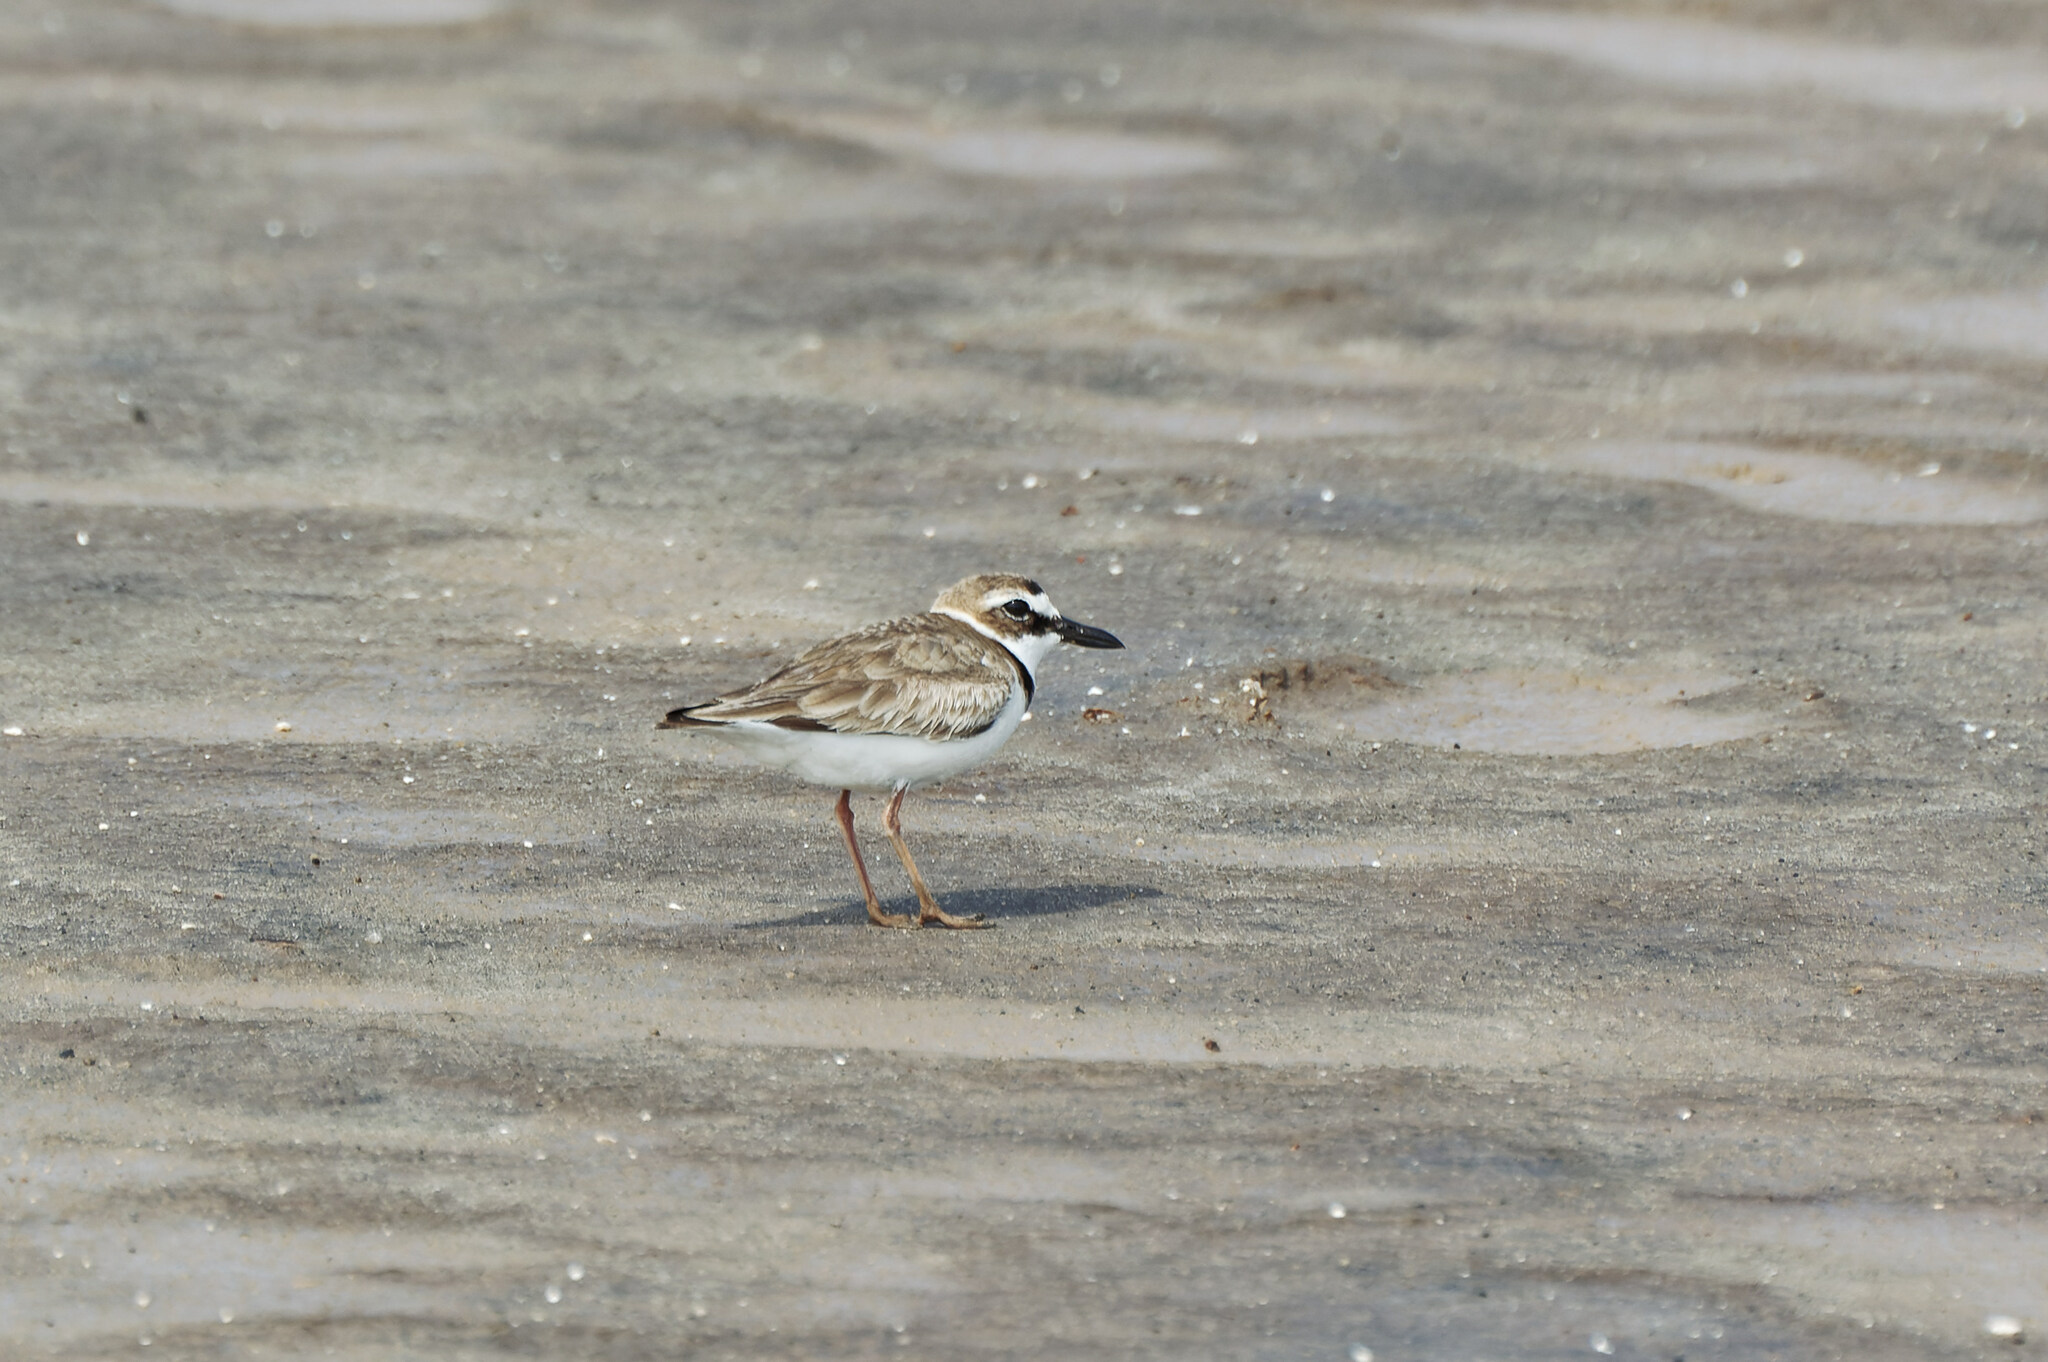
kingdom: Animalia
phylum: Chordata
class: Aves
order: Charadriiformes
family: Charadriidae
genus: Anarhynchus
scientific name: Anarhynchus
